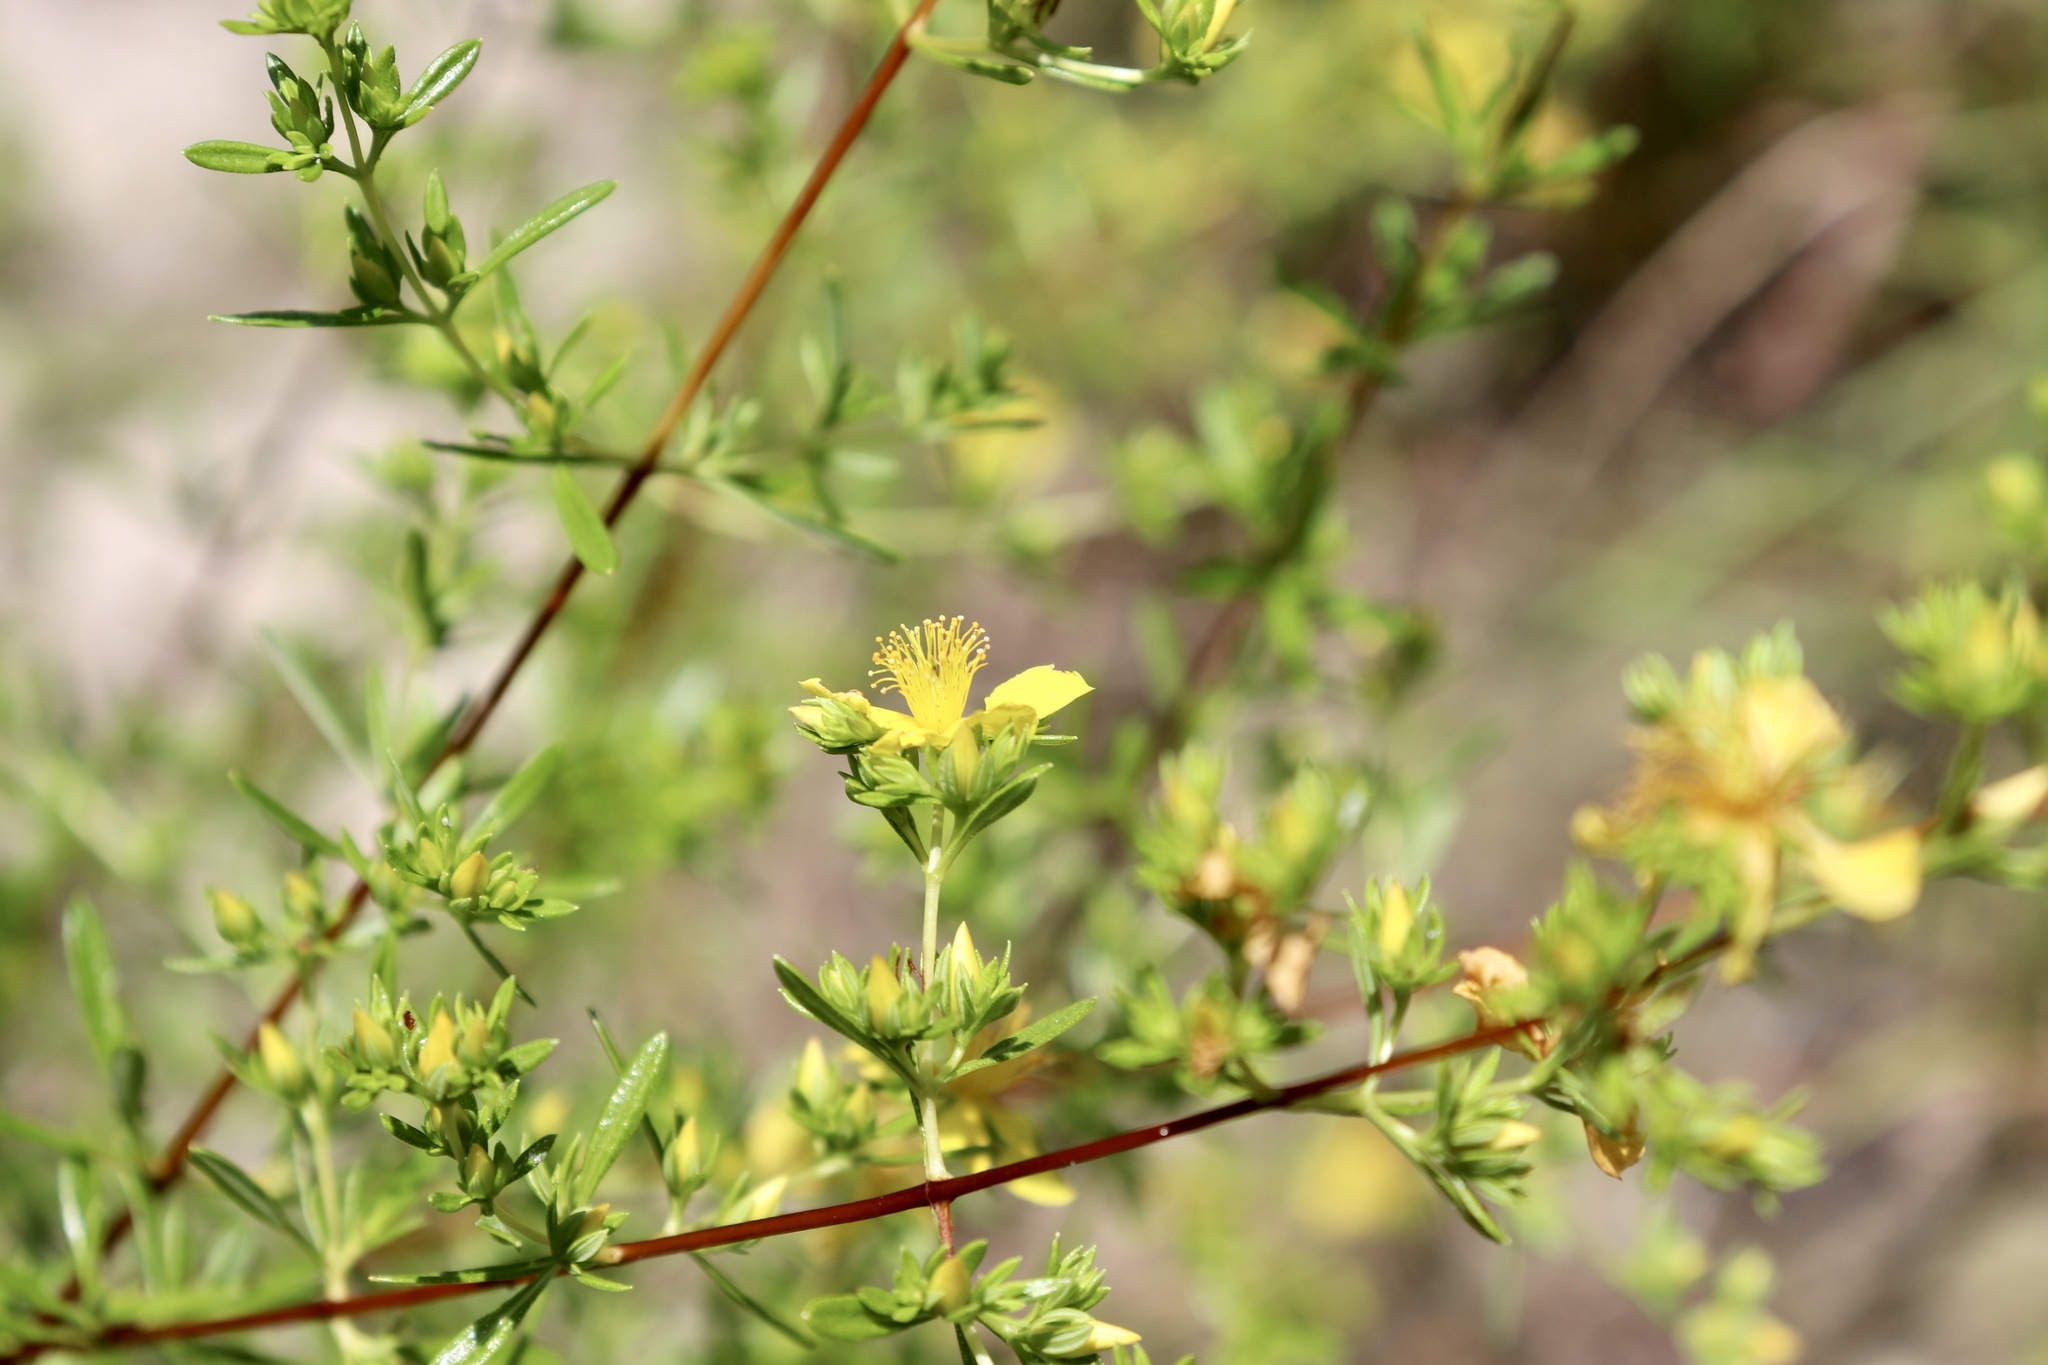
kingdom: Plantae
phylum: Tracheophyta
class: Magnoliopsida
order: Malpighiales
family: Hypericaceae
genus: Hypericum
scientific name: Hypericum galioides
